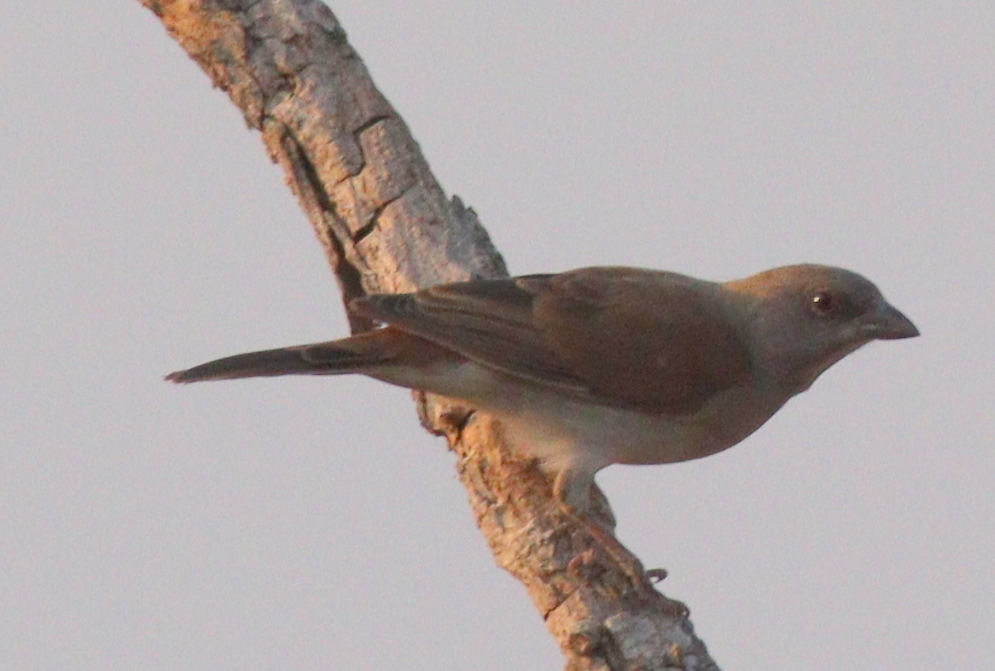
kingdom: Animalia
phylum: Chordata
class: Aves
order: Passeriformes
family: Passeridae
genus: Passer
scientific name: Passer griseus
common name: Northern grey-headed sparrow
